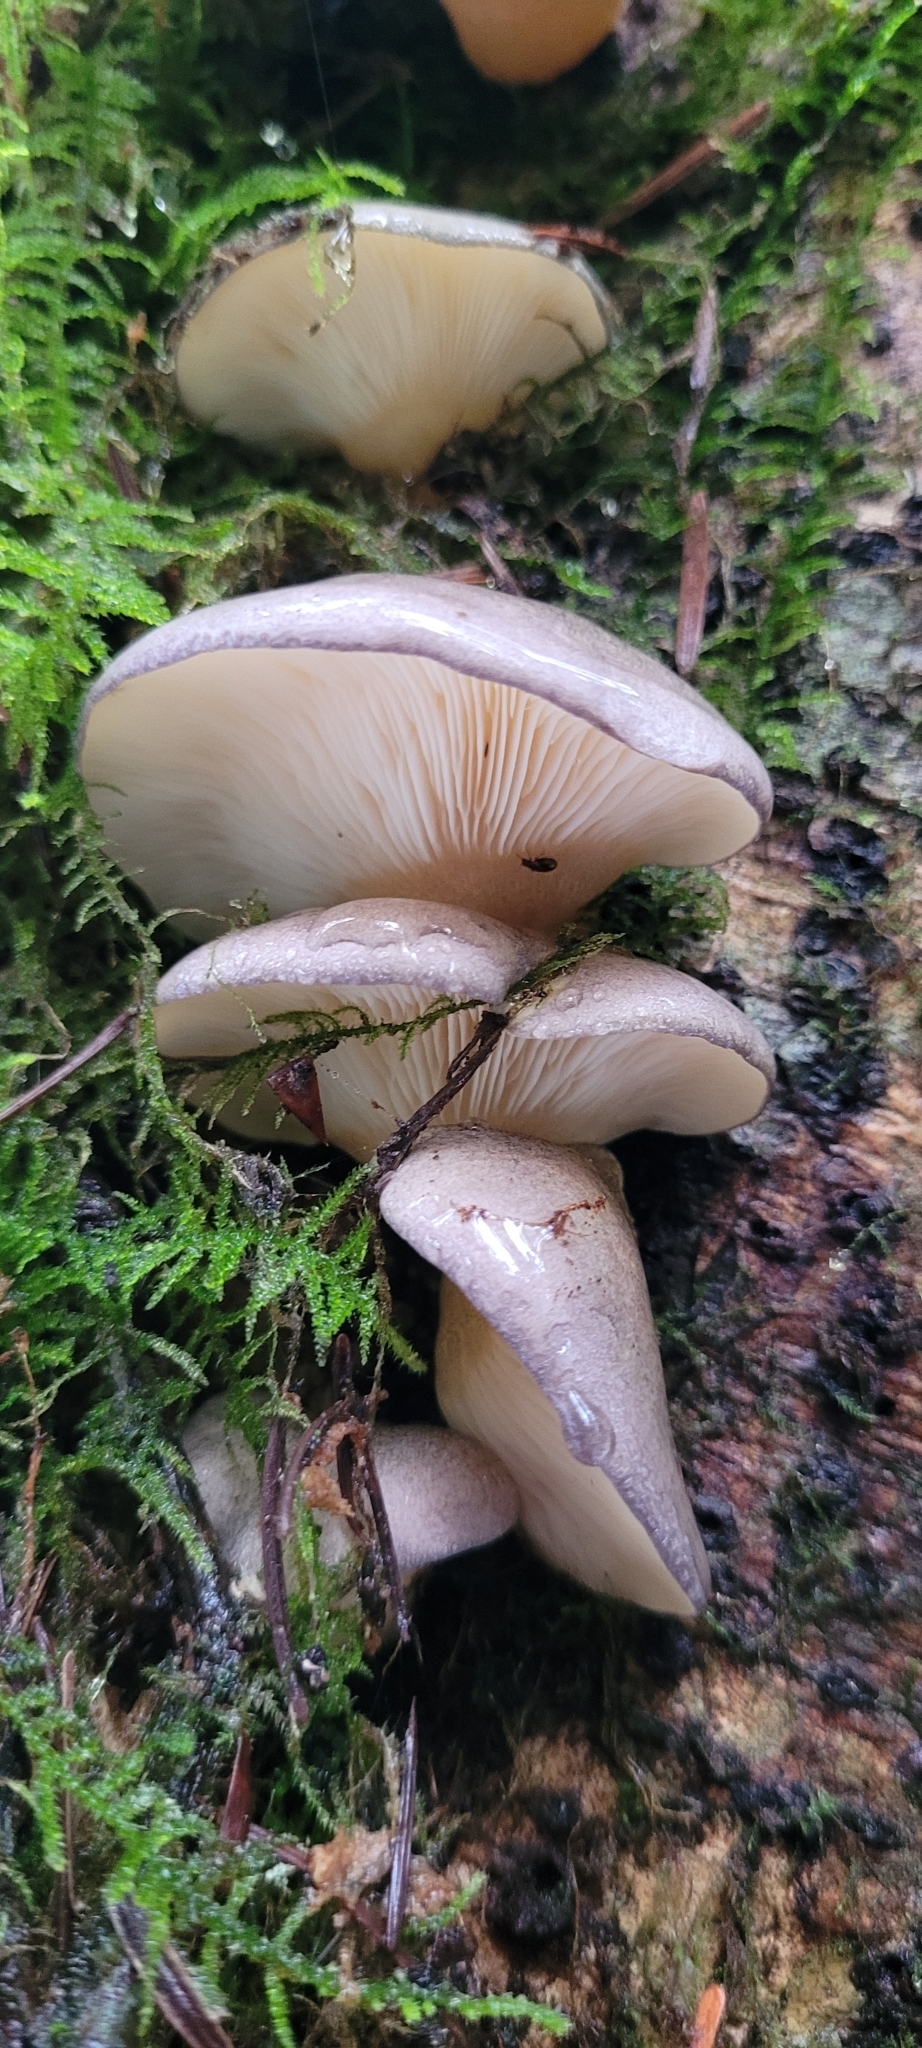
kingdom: Fungi
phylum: Basidiomycota
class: Agaricomycetes
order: Agaricales
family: Sarcomyxaceae
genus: Sarcomyxa
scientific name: Sarcomyxa serotina
